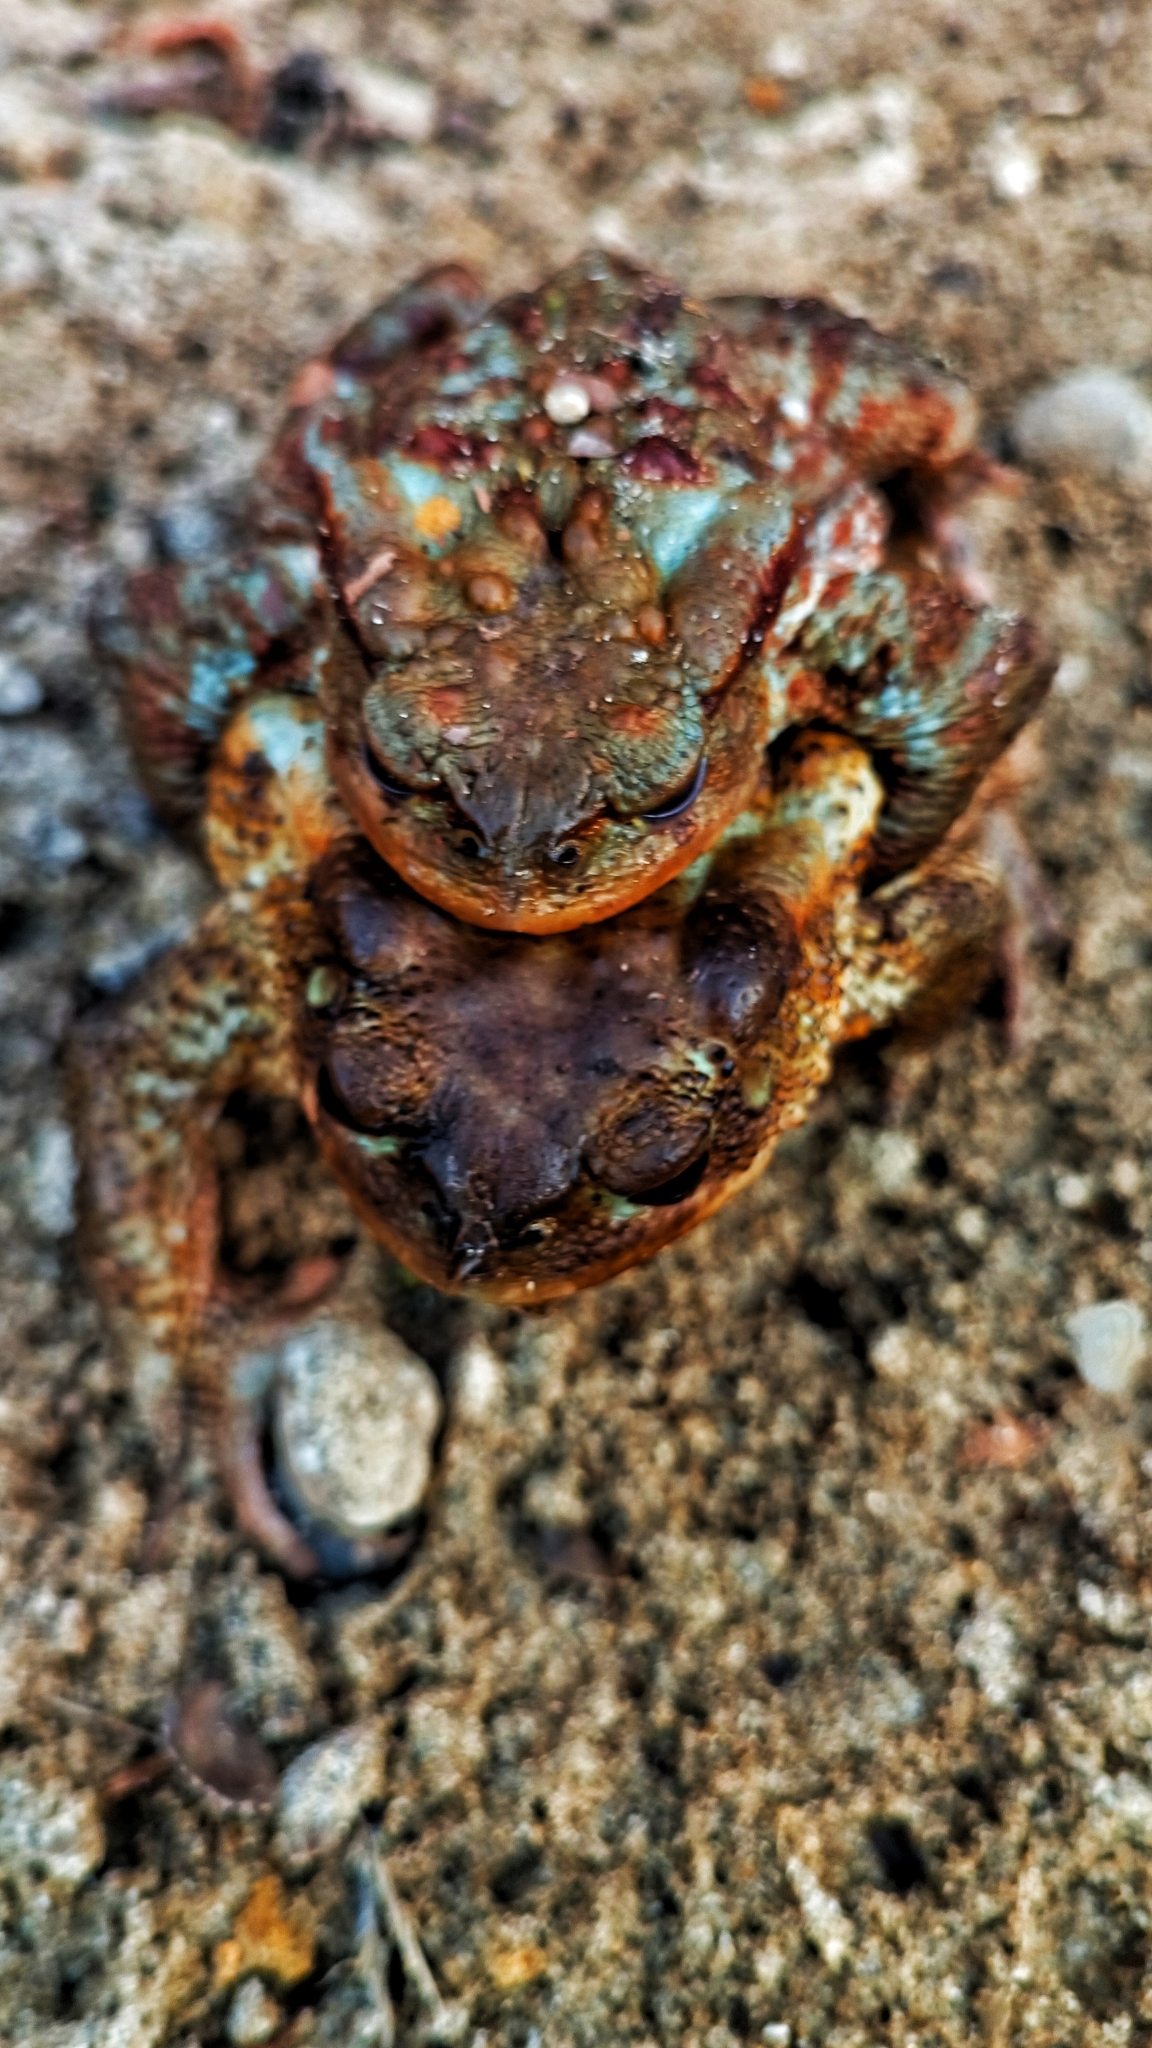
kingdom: Animalia
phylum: Chordata
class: Amphibia
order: Anura
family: Bufonidae
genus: Bufo
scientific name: Bufo bufo
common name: Common toad
